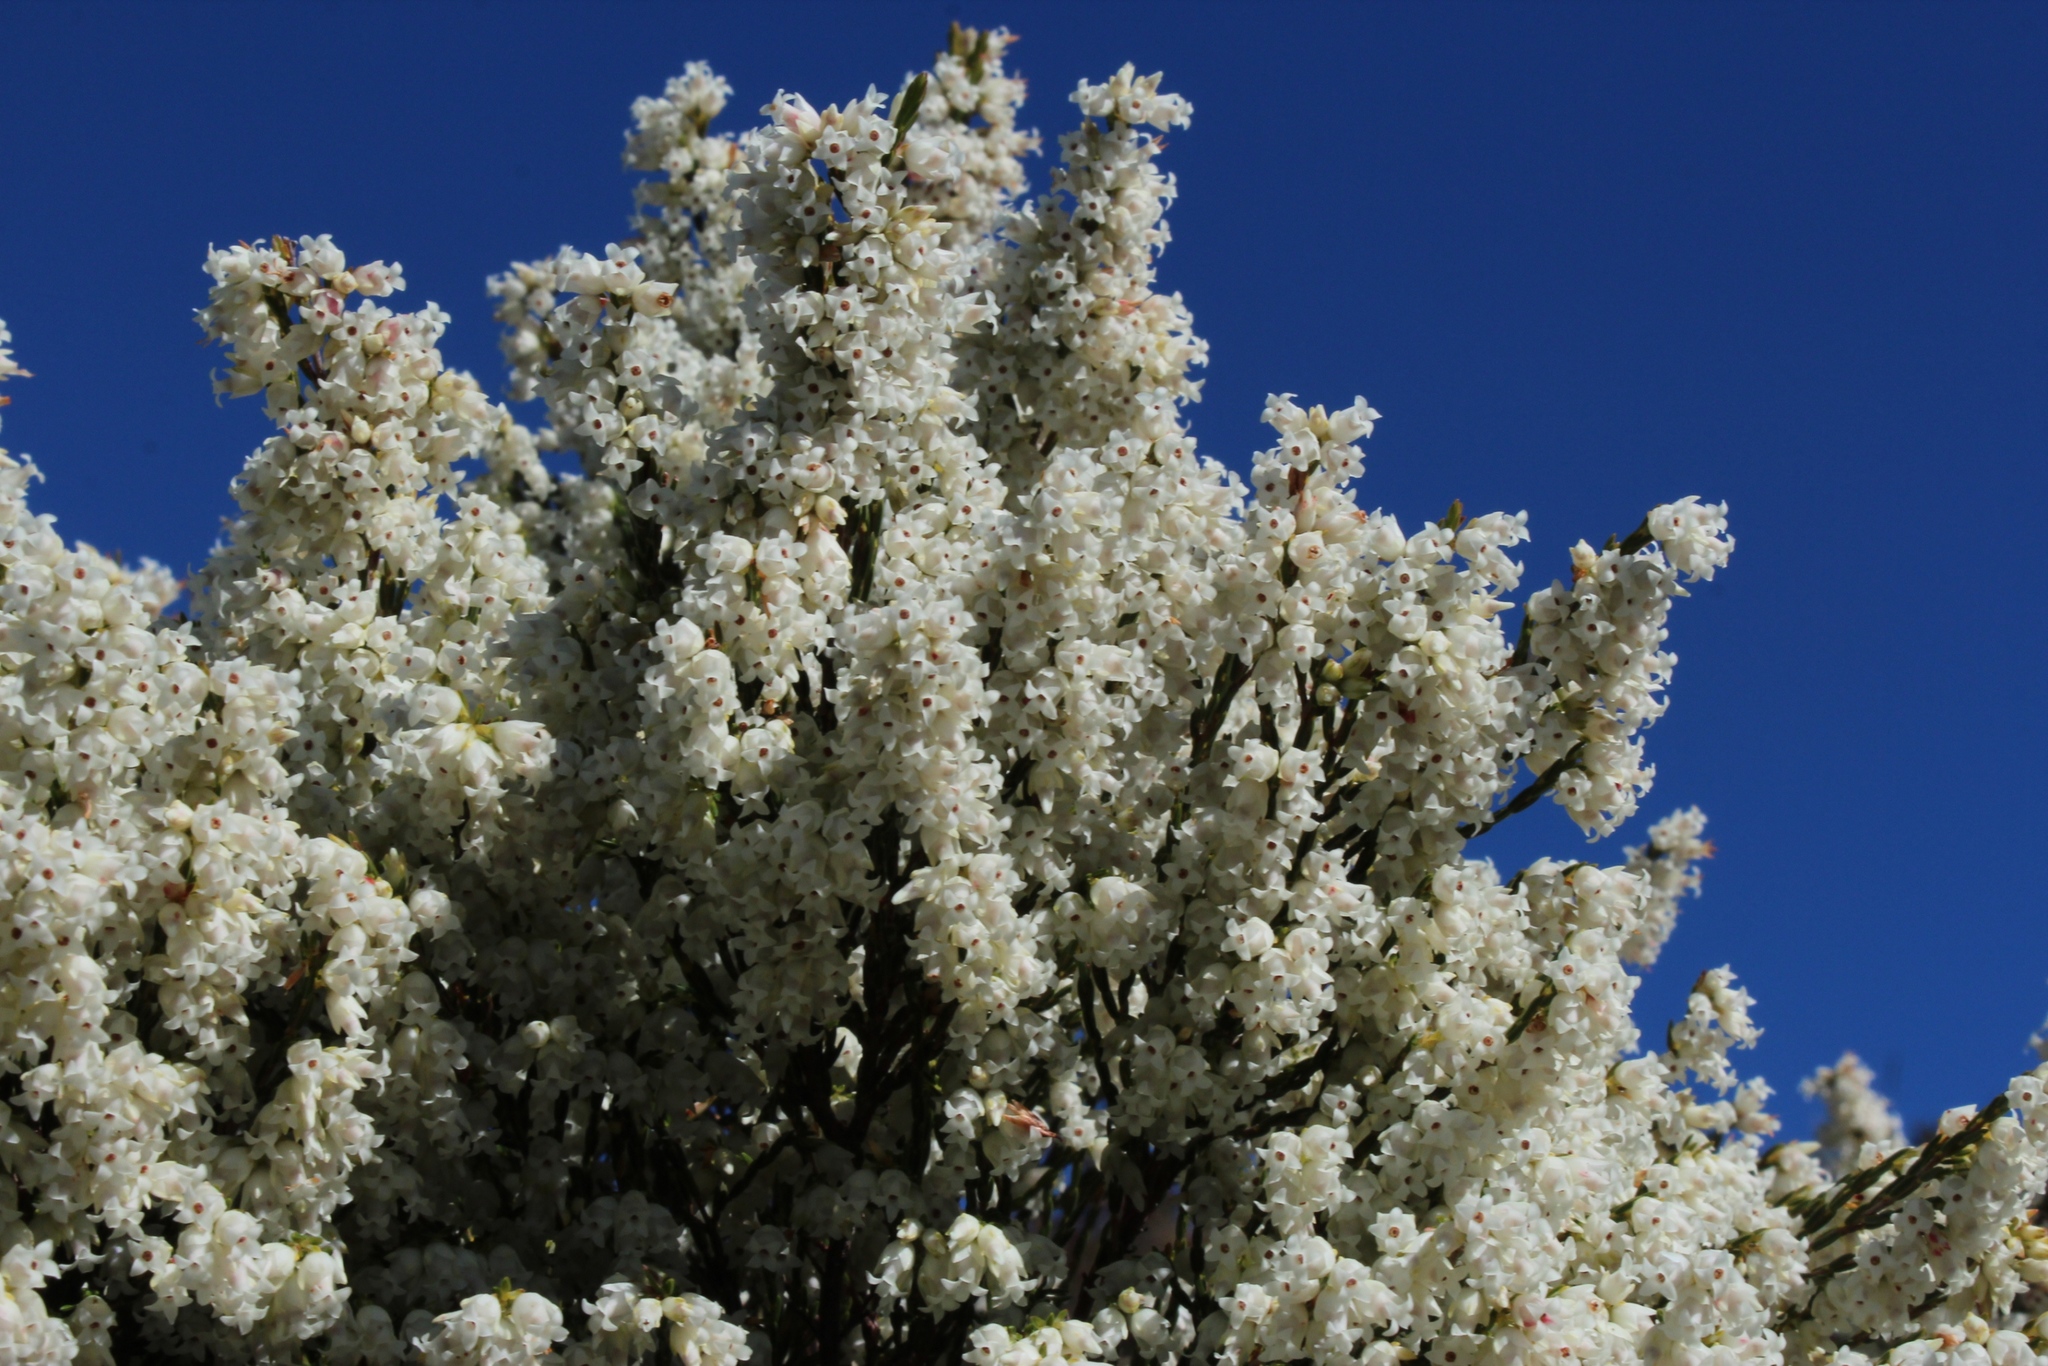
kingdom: Plantae
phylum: Tracheophyta
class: Magnoliopsida
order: Ericales
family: Ericaceae
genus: Erica
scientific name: Erica lutea
